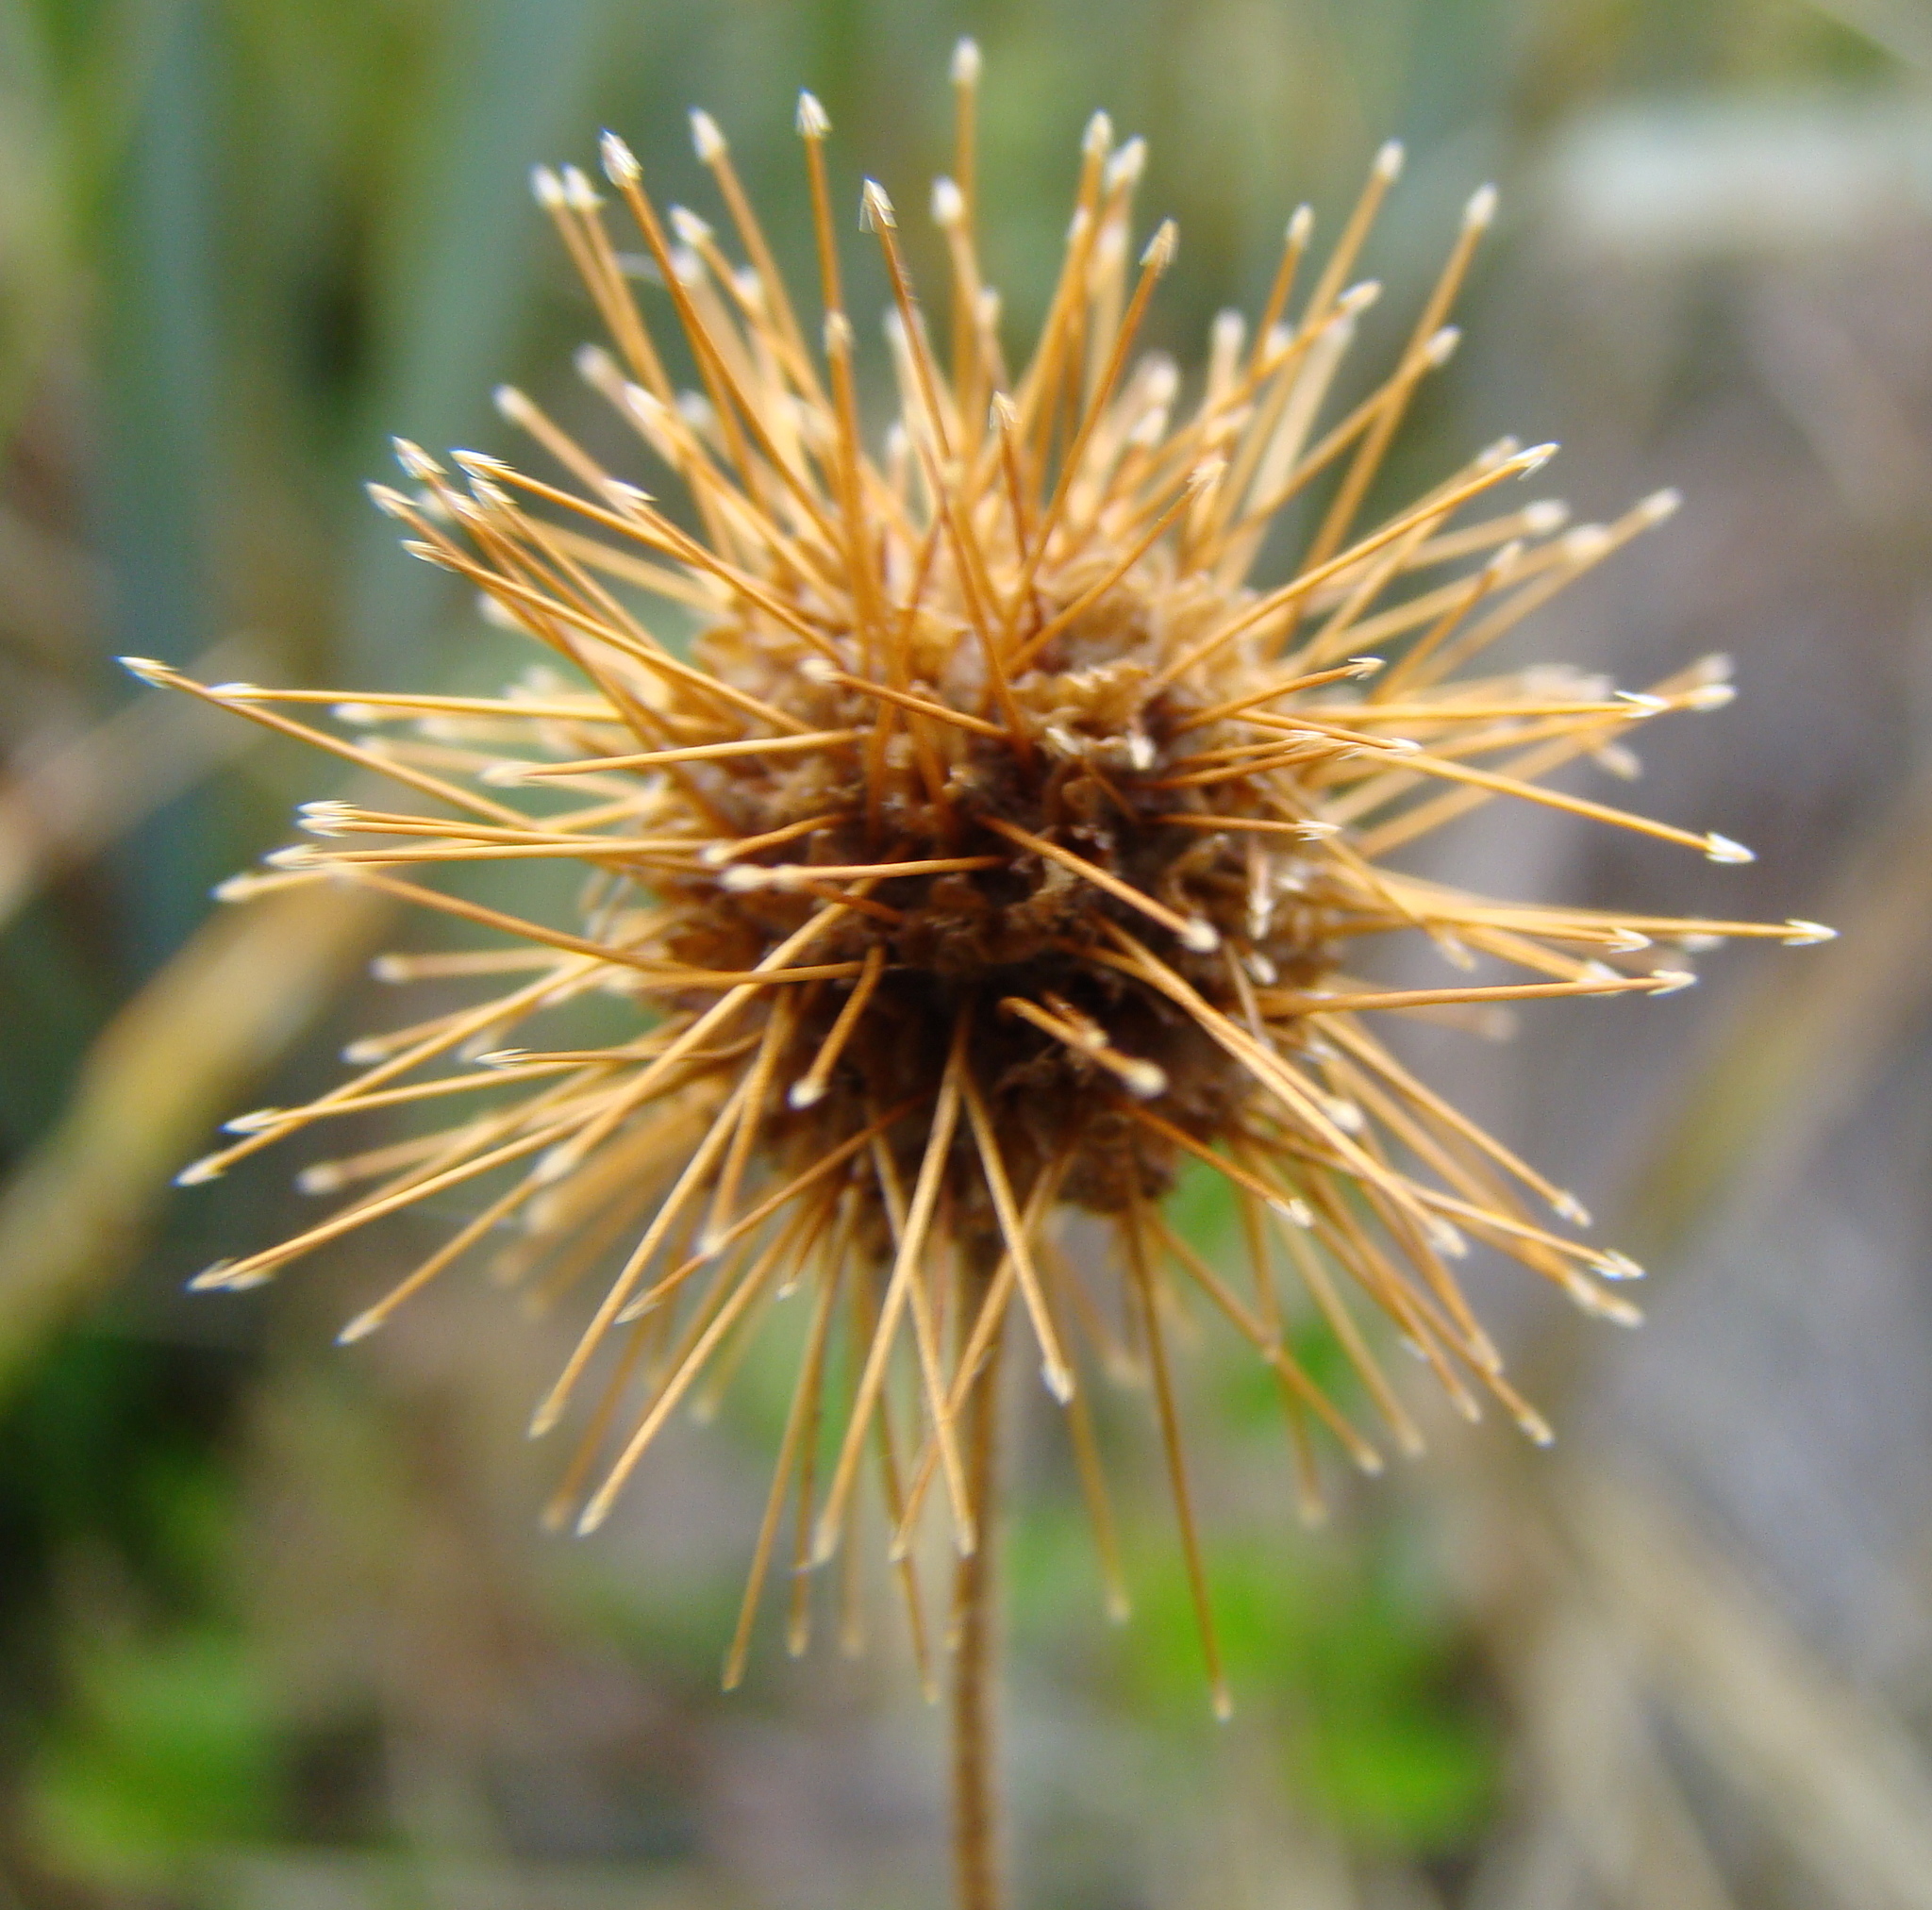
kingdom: Plantae
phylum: Tracheophyta
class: Magnoliopsida
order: Rosales
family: Rosaceae
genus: Acaena
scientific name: Acaena anserinifolia
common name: Bronze pirri-pirri-bur
